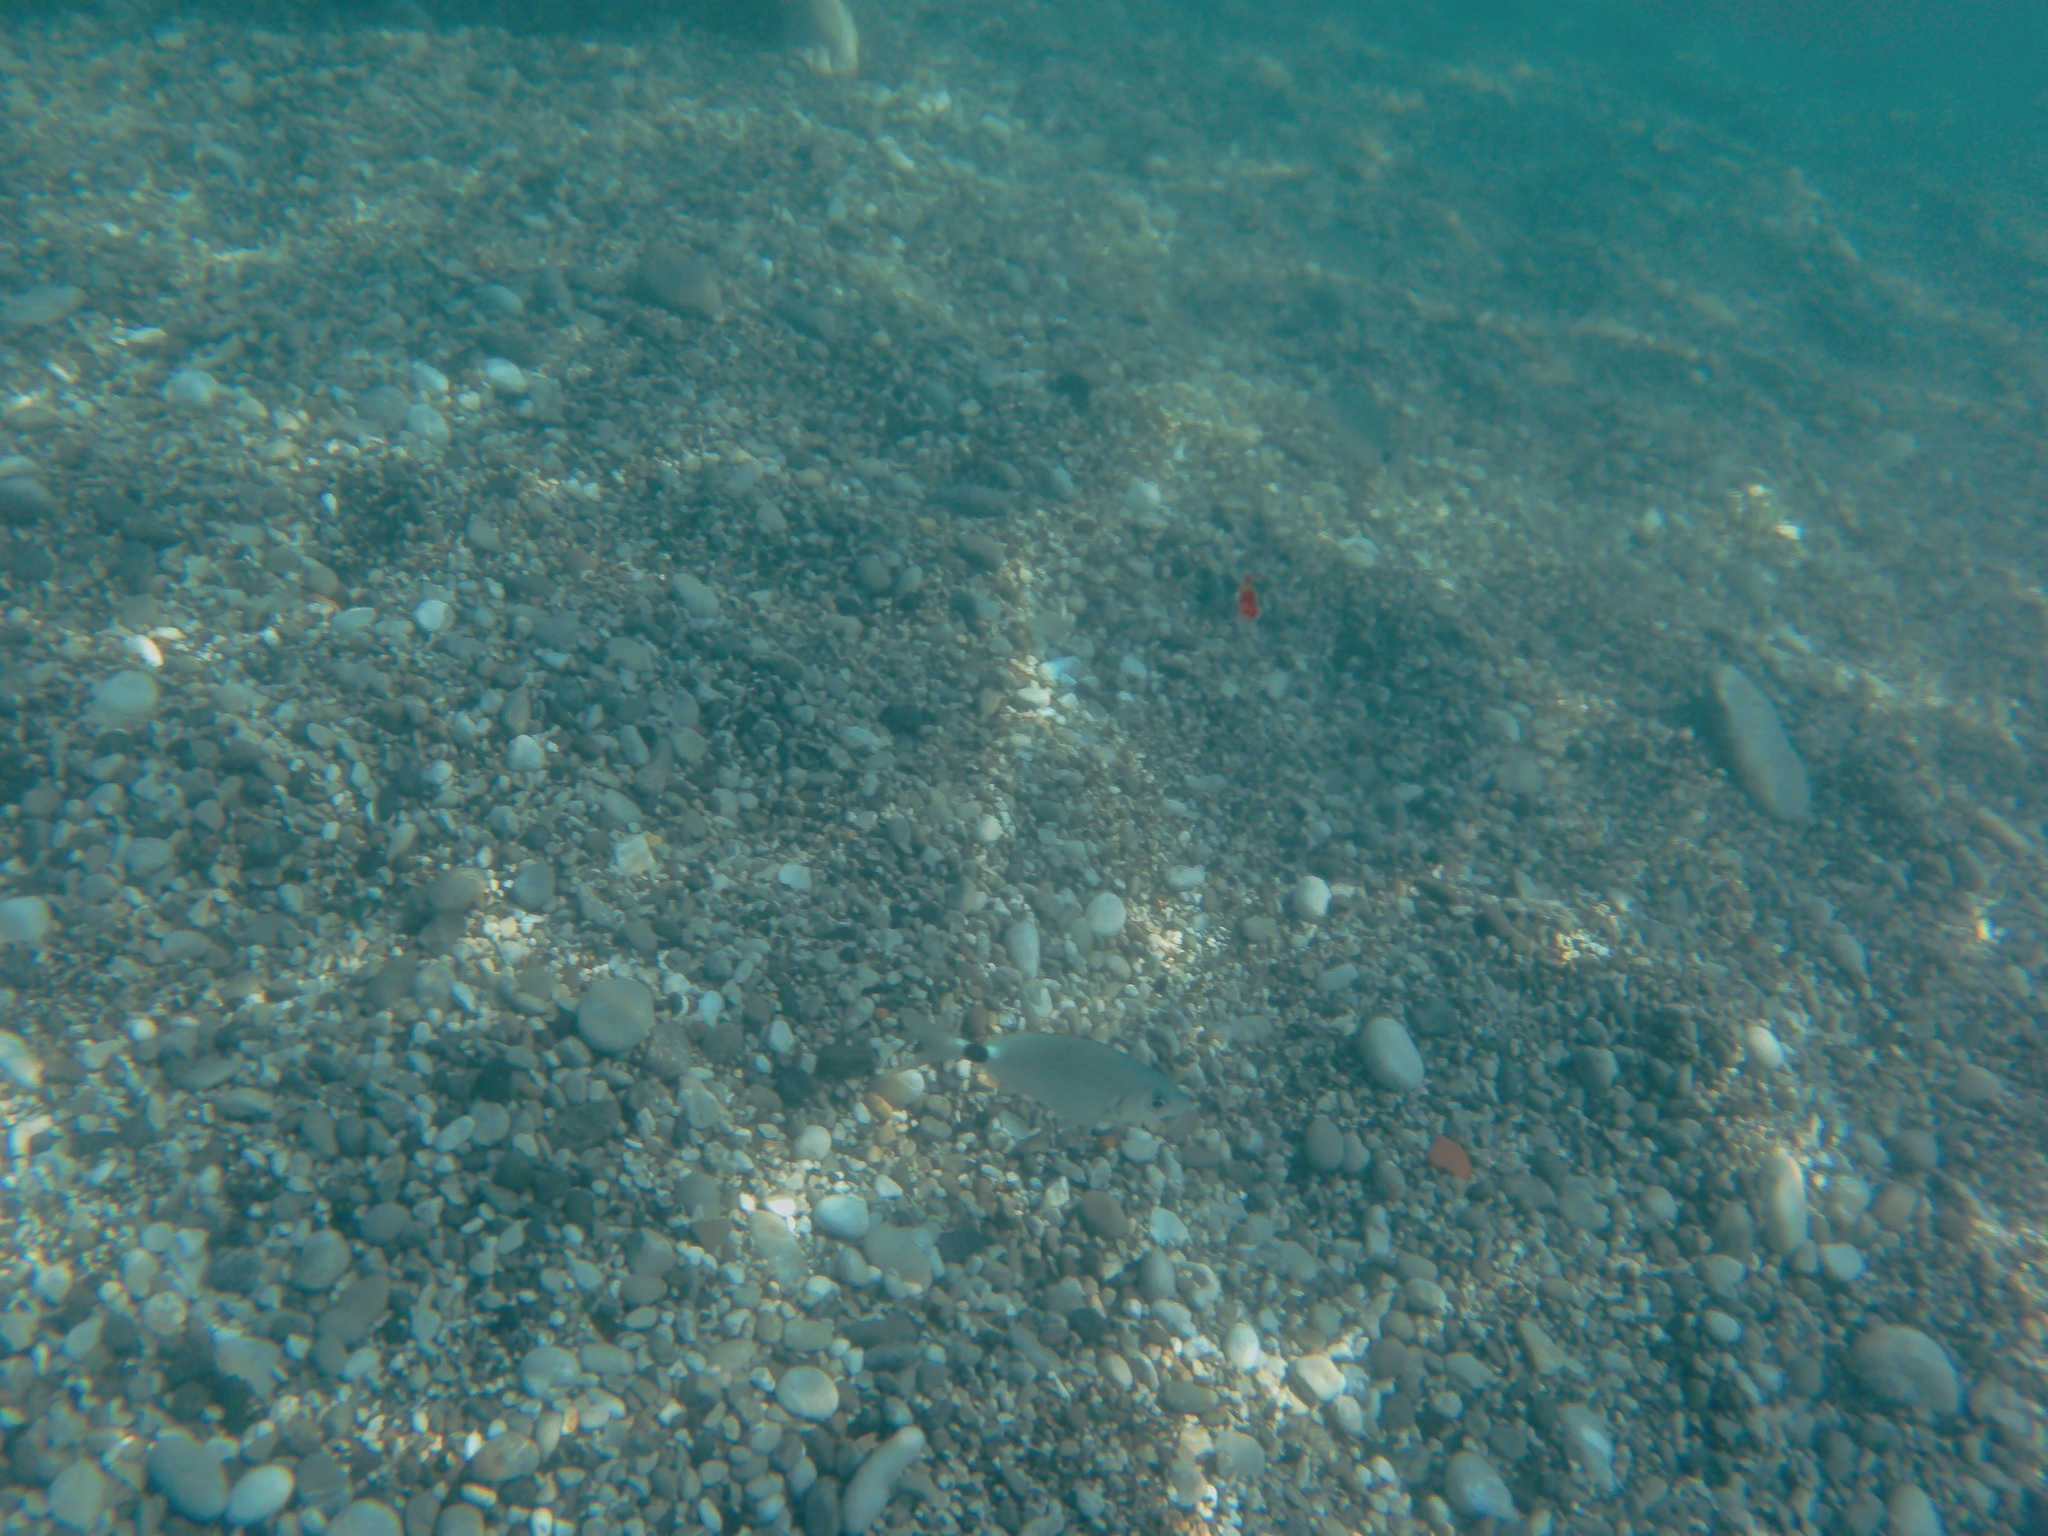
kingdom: Animalia
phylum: Chordata
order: Perciformes
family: Sparidae
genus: Oblada
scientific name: Oblada melanura
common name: Saddled seabream
